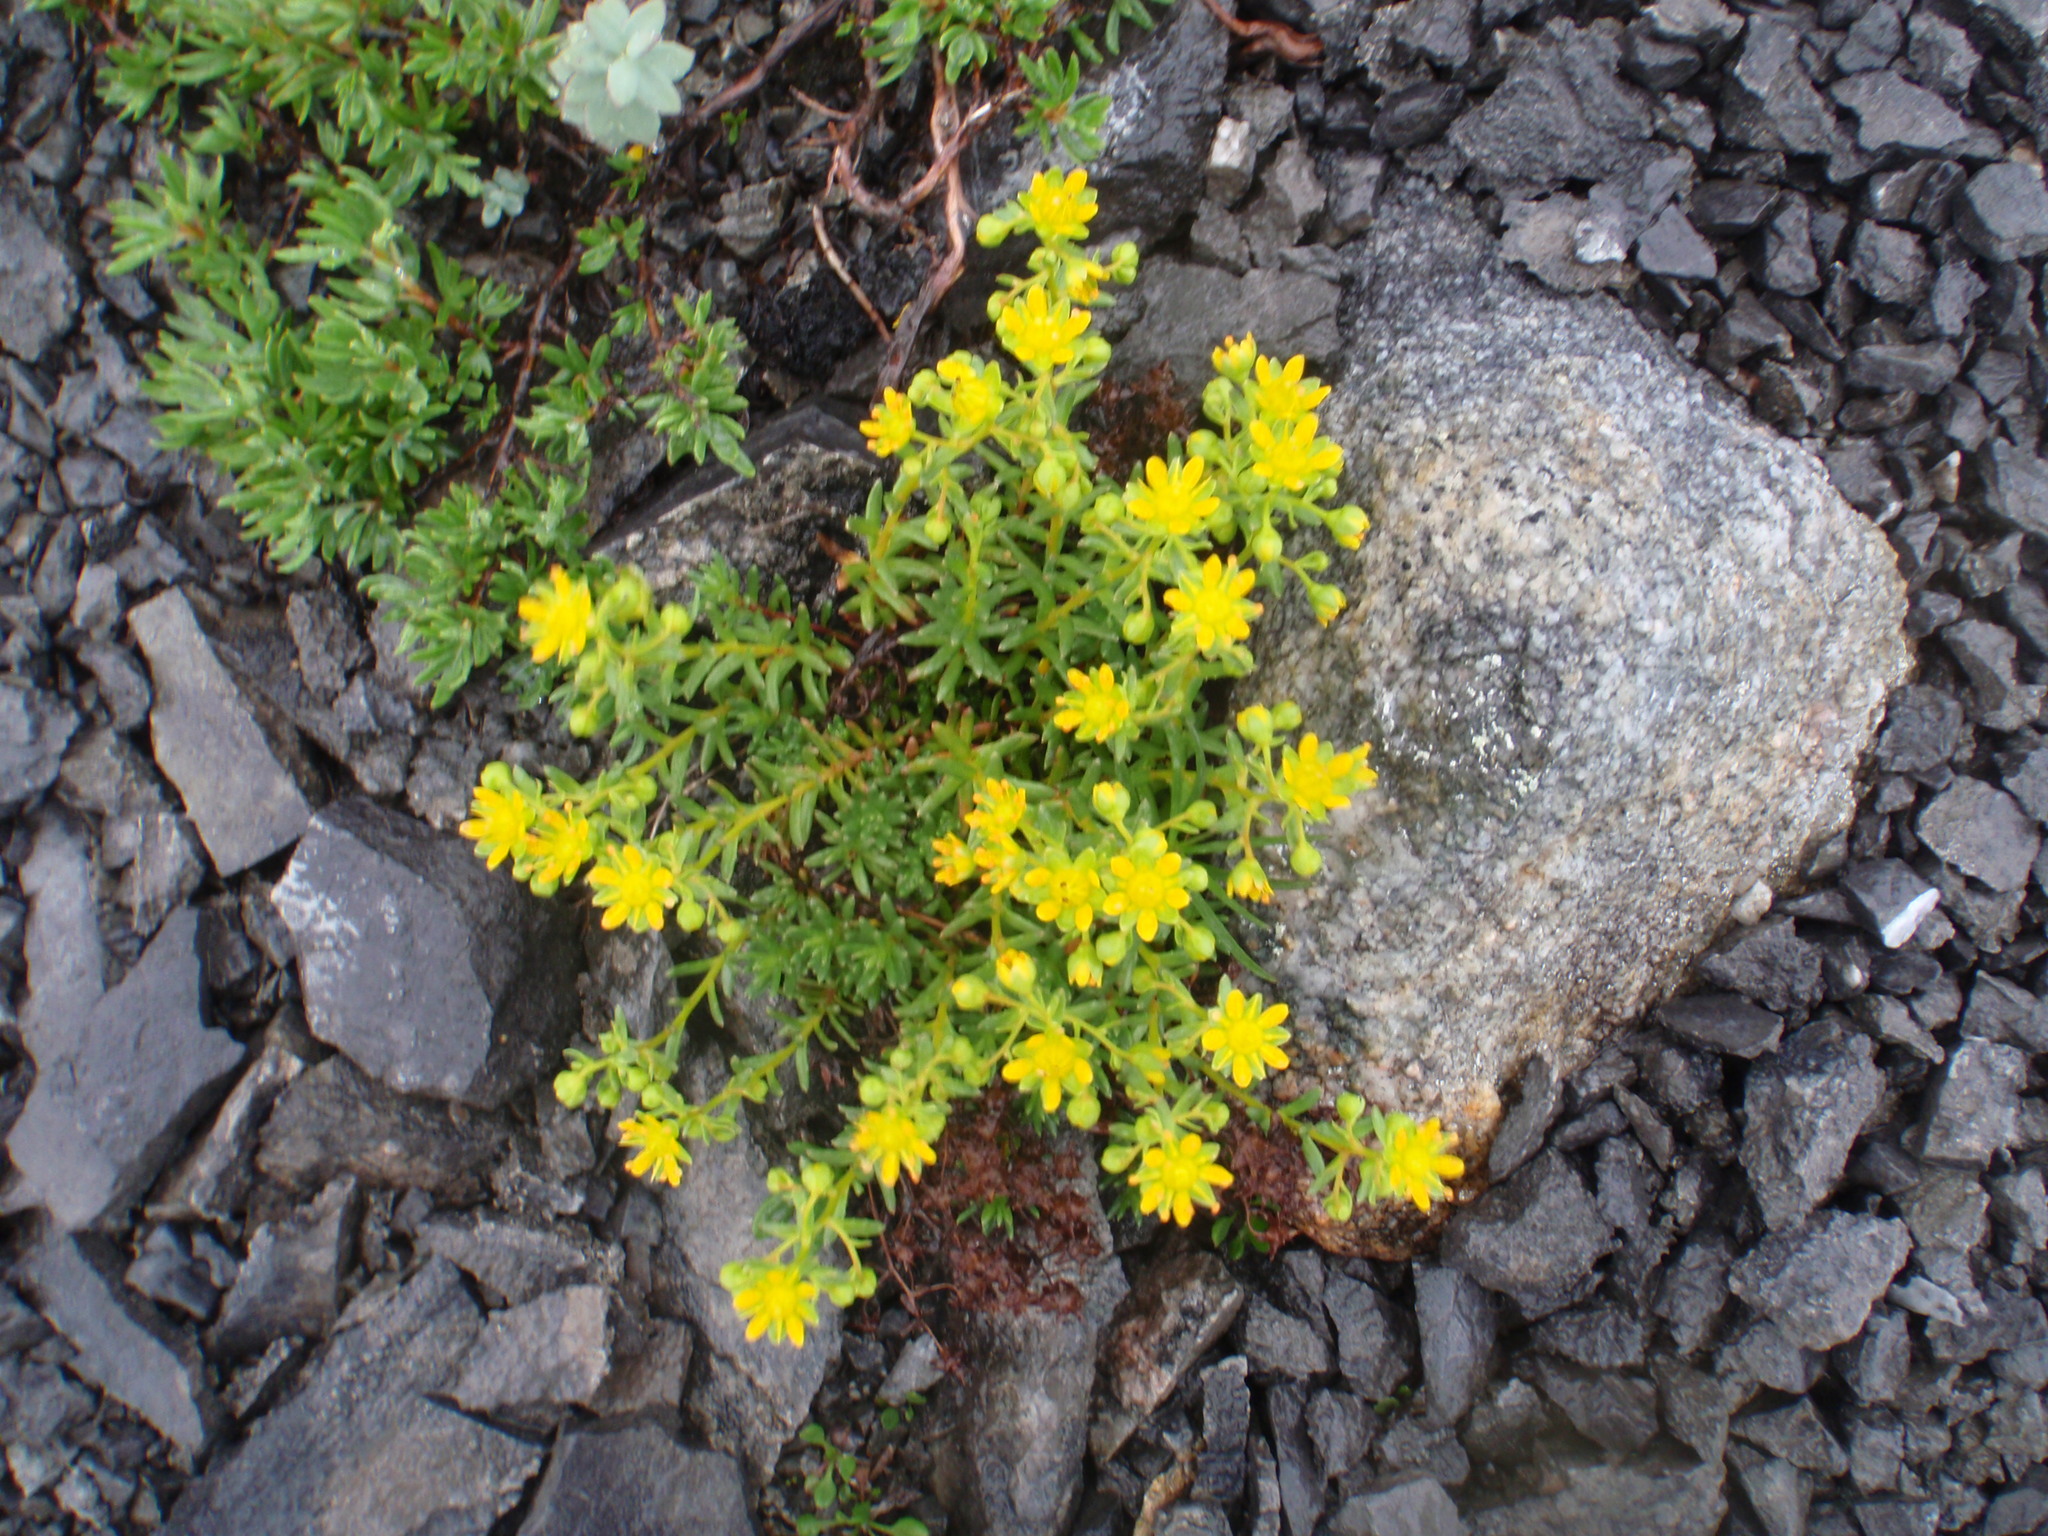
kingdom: Plantae
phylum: Tracheophyta
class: Magnoliopsida
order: Saxifragales
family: Saxifragaceae
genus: Saxifraga
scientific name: Saxifraga aizoides
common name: Yellow mountain saxifrage
